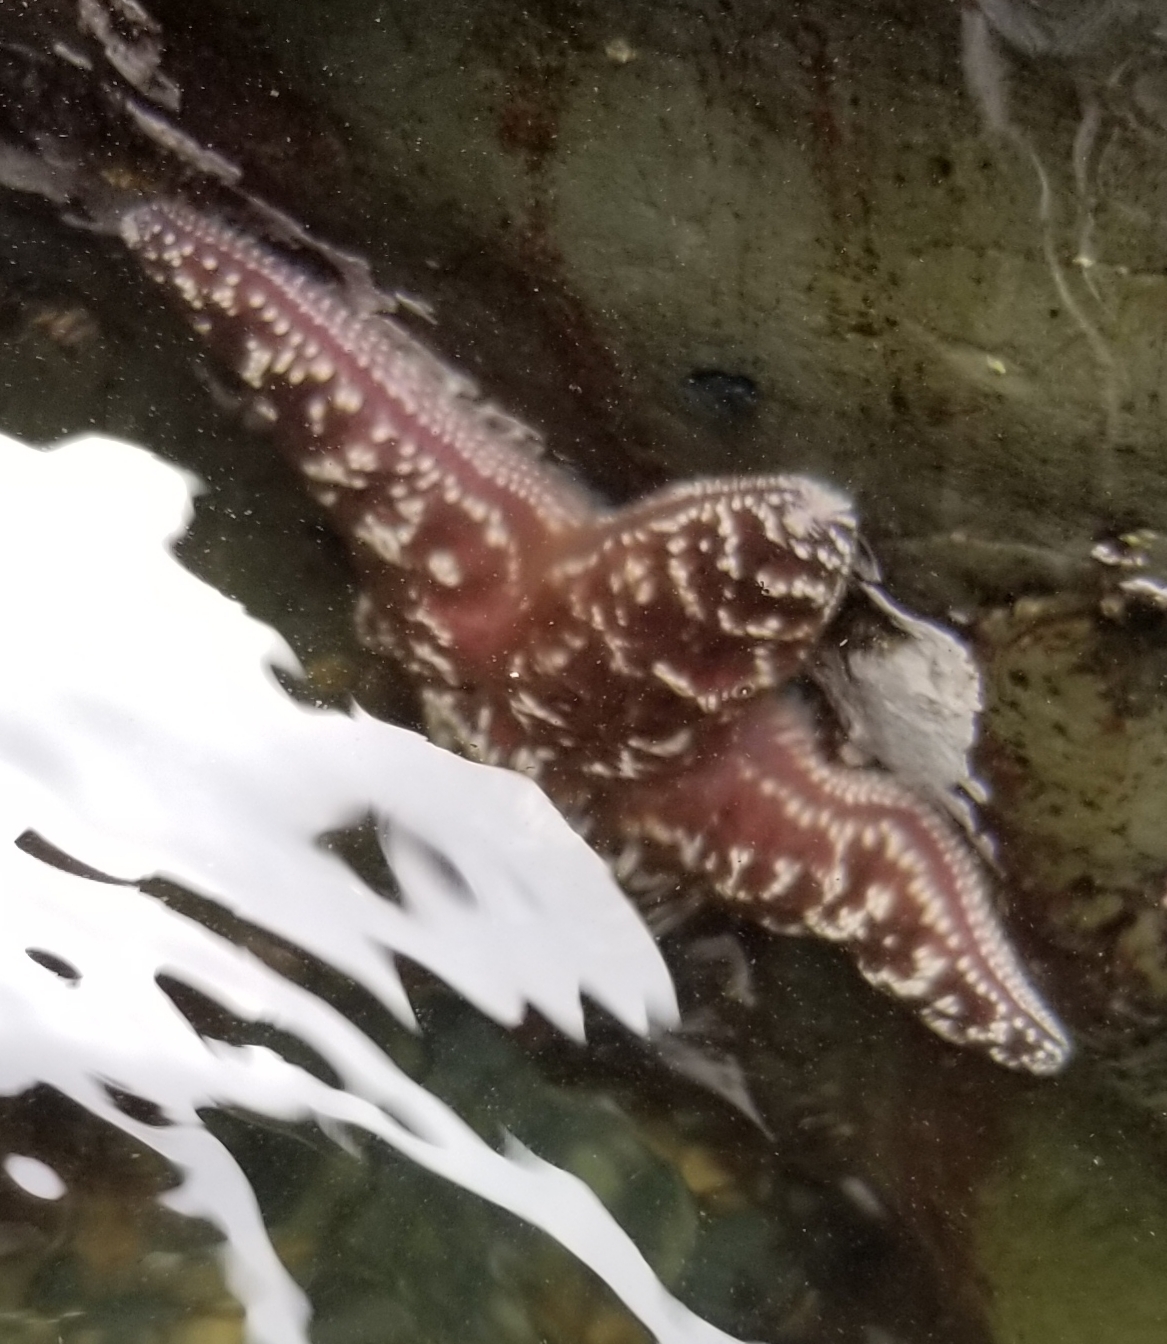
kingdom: Animalia
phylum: Echinodermata
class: Asteroidea
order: Forcipulatida
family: Asteriidae
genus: Pisaster
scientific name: Pisaster ochraceus
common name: Ochre stars
